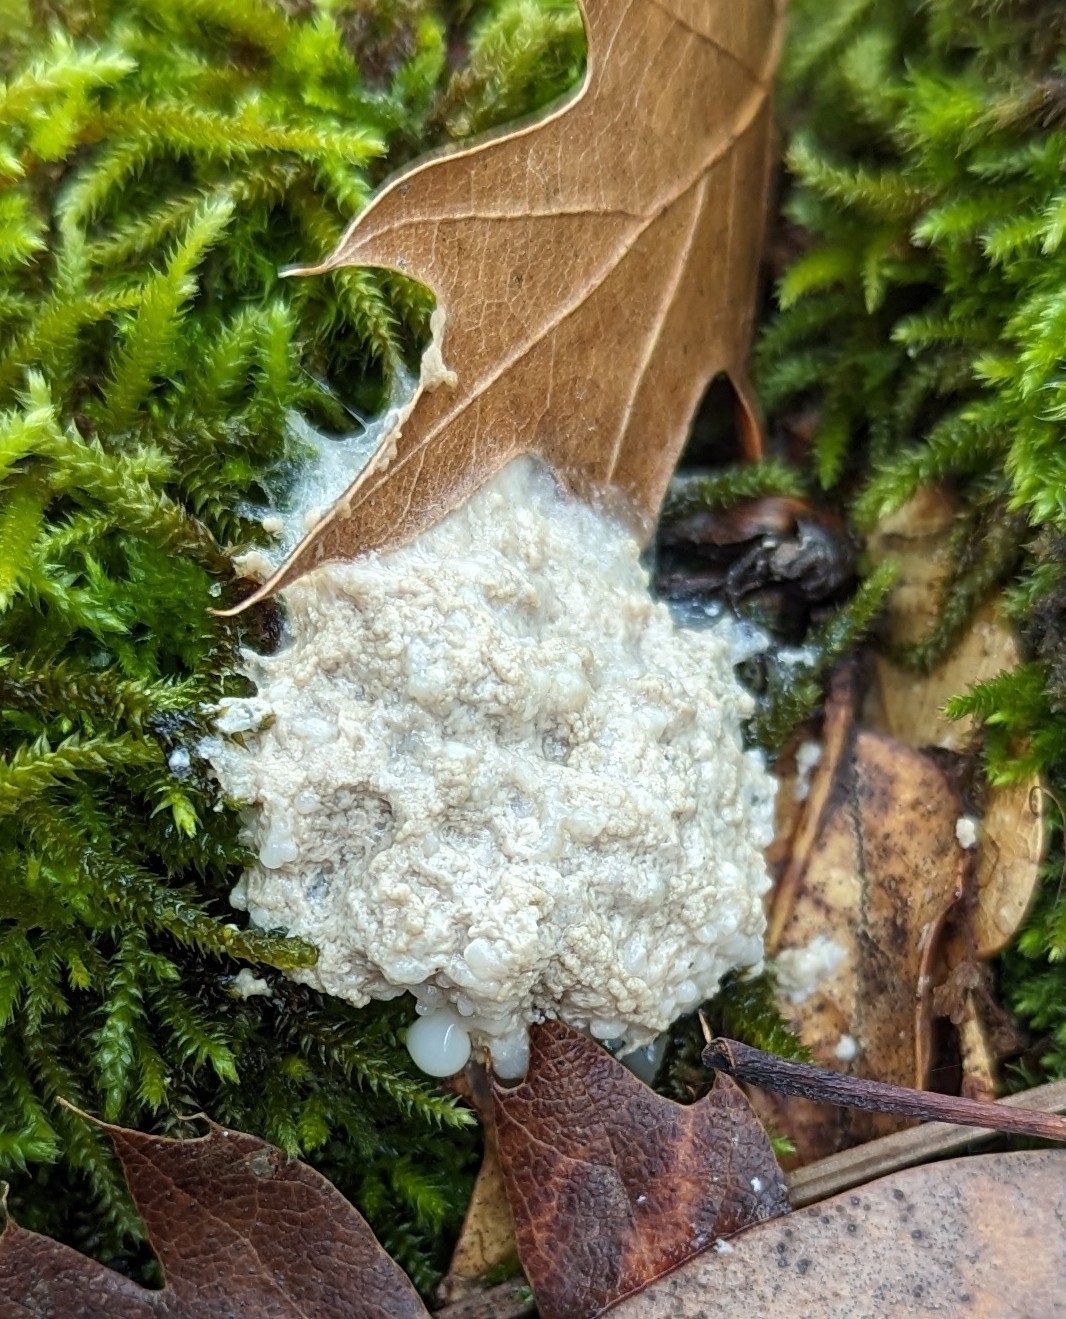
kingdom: Protozoa
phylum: Mycetozoa
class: Myxomycetes
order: Physarales
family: Physaraceae
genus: Didymium
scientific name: Didymium
